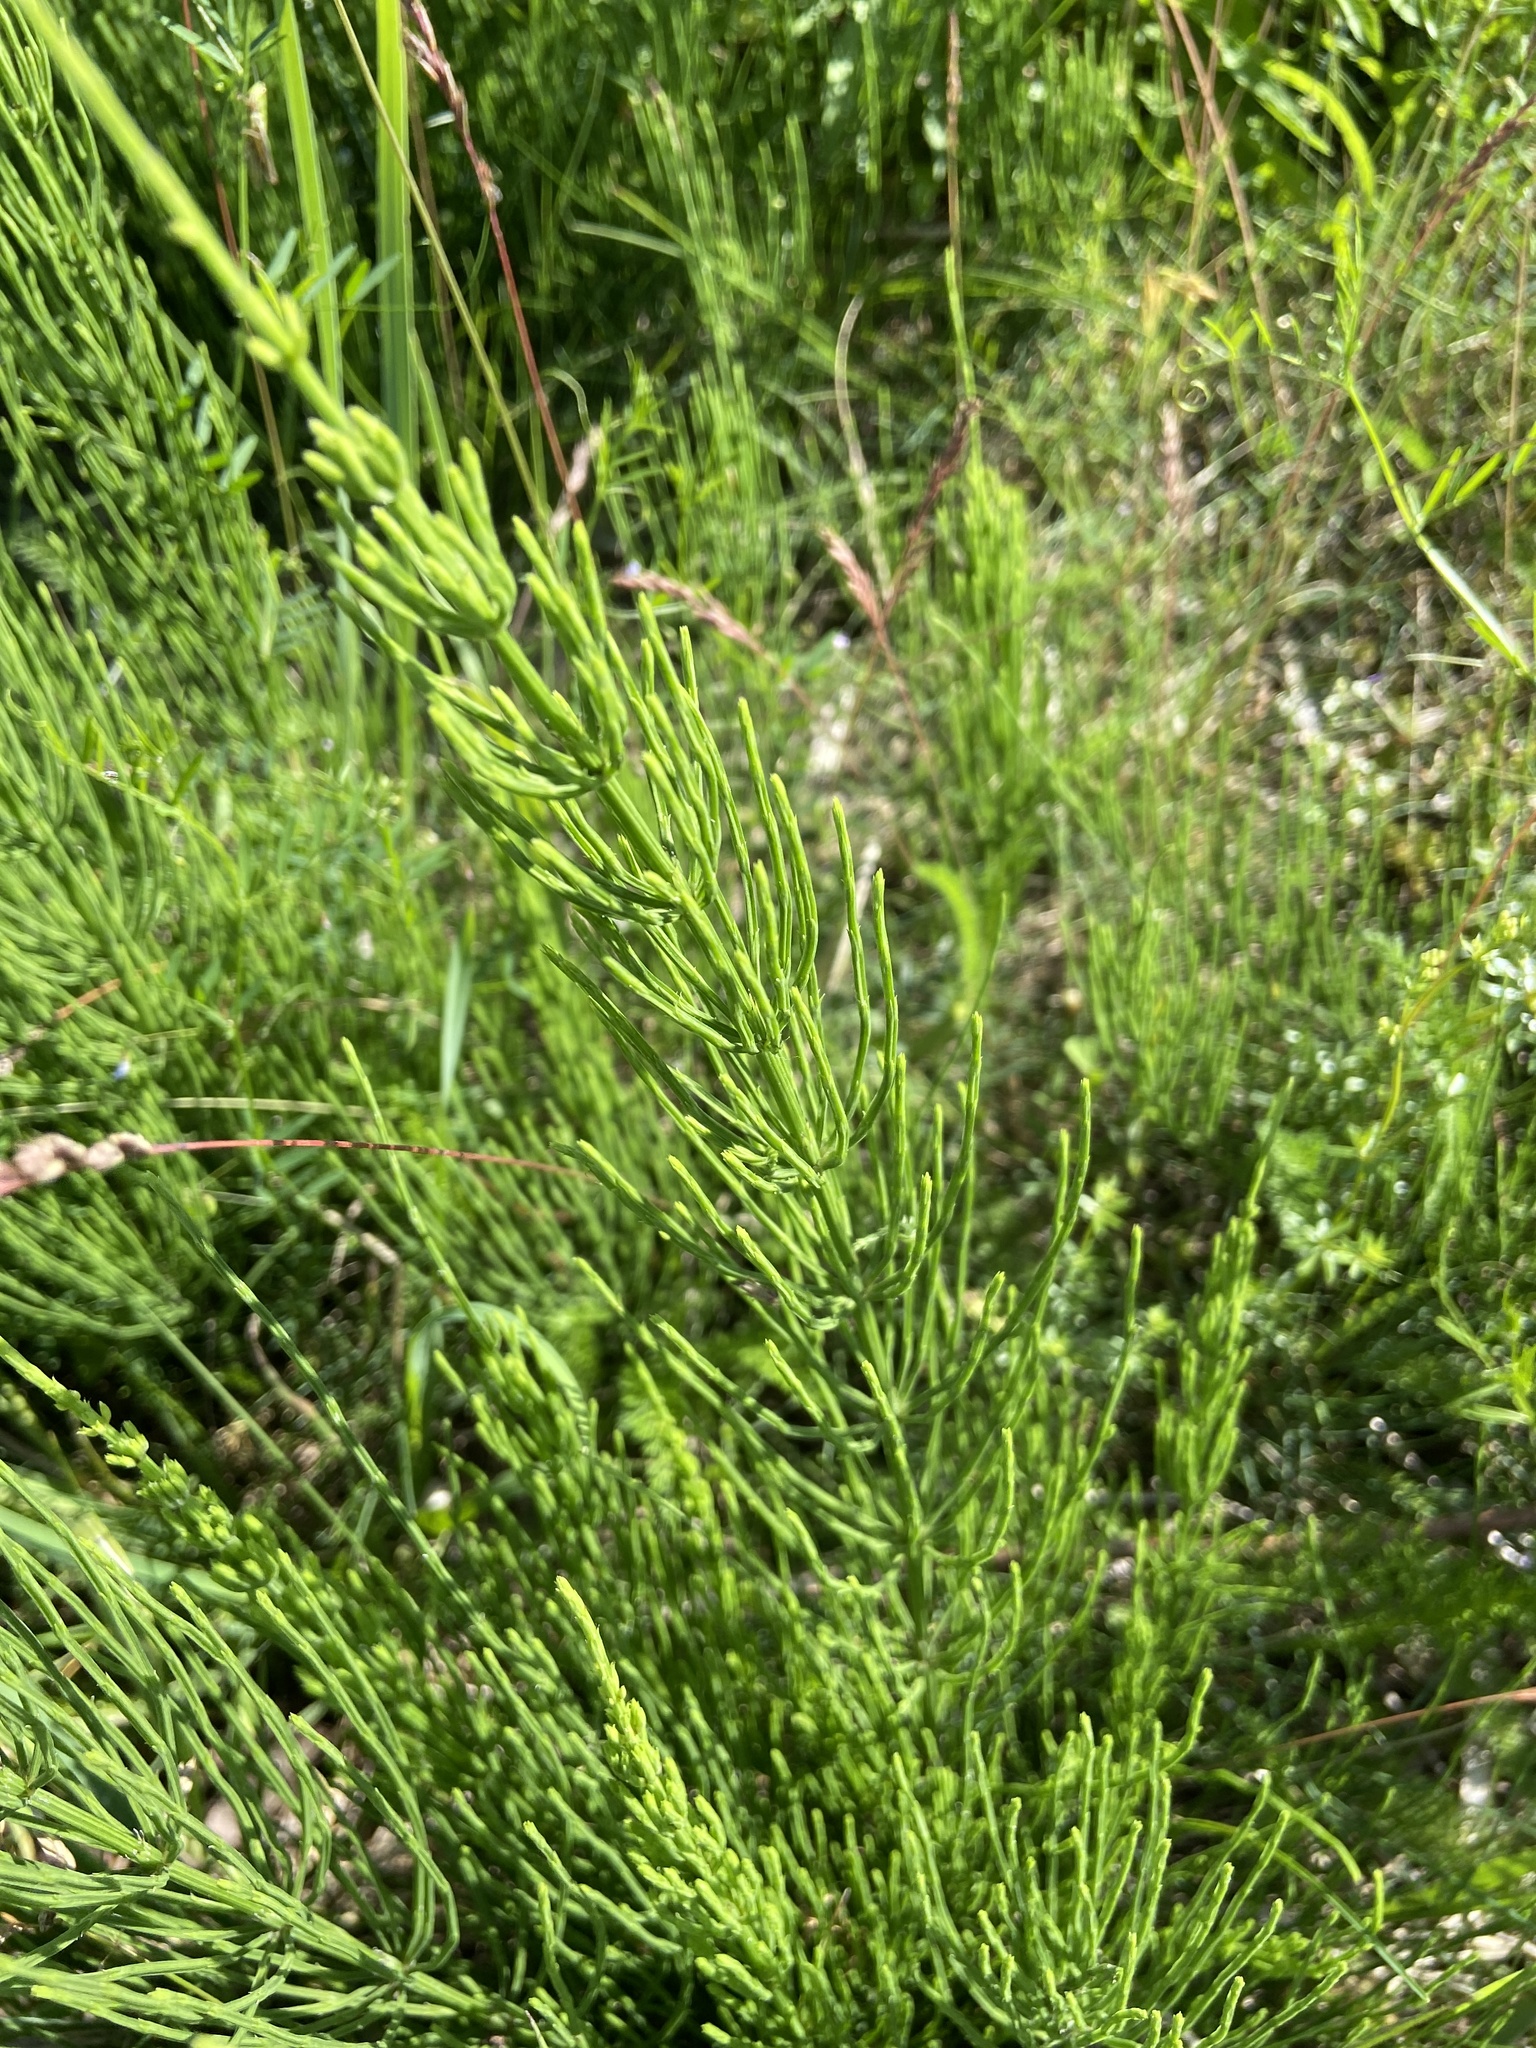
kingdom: Plantae
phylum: Tracheophyta
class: Polypodiopsida
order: Equisetales
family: Equisetaceae
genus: Equisetum
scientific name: Equisetum arvense
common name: Field horsetail
